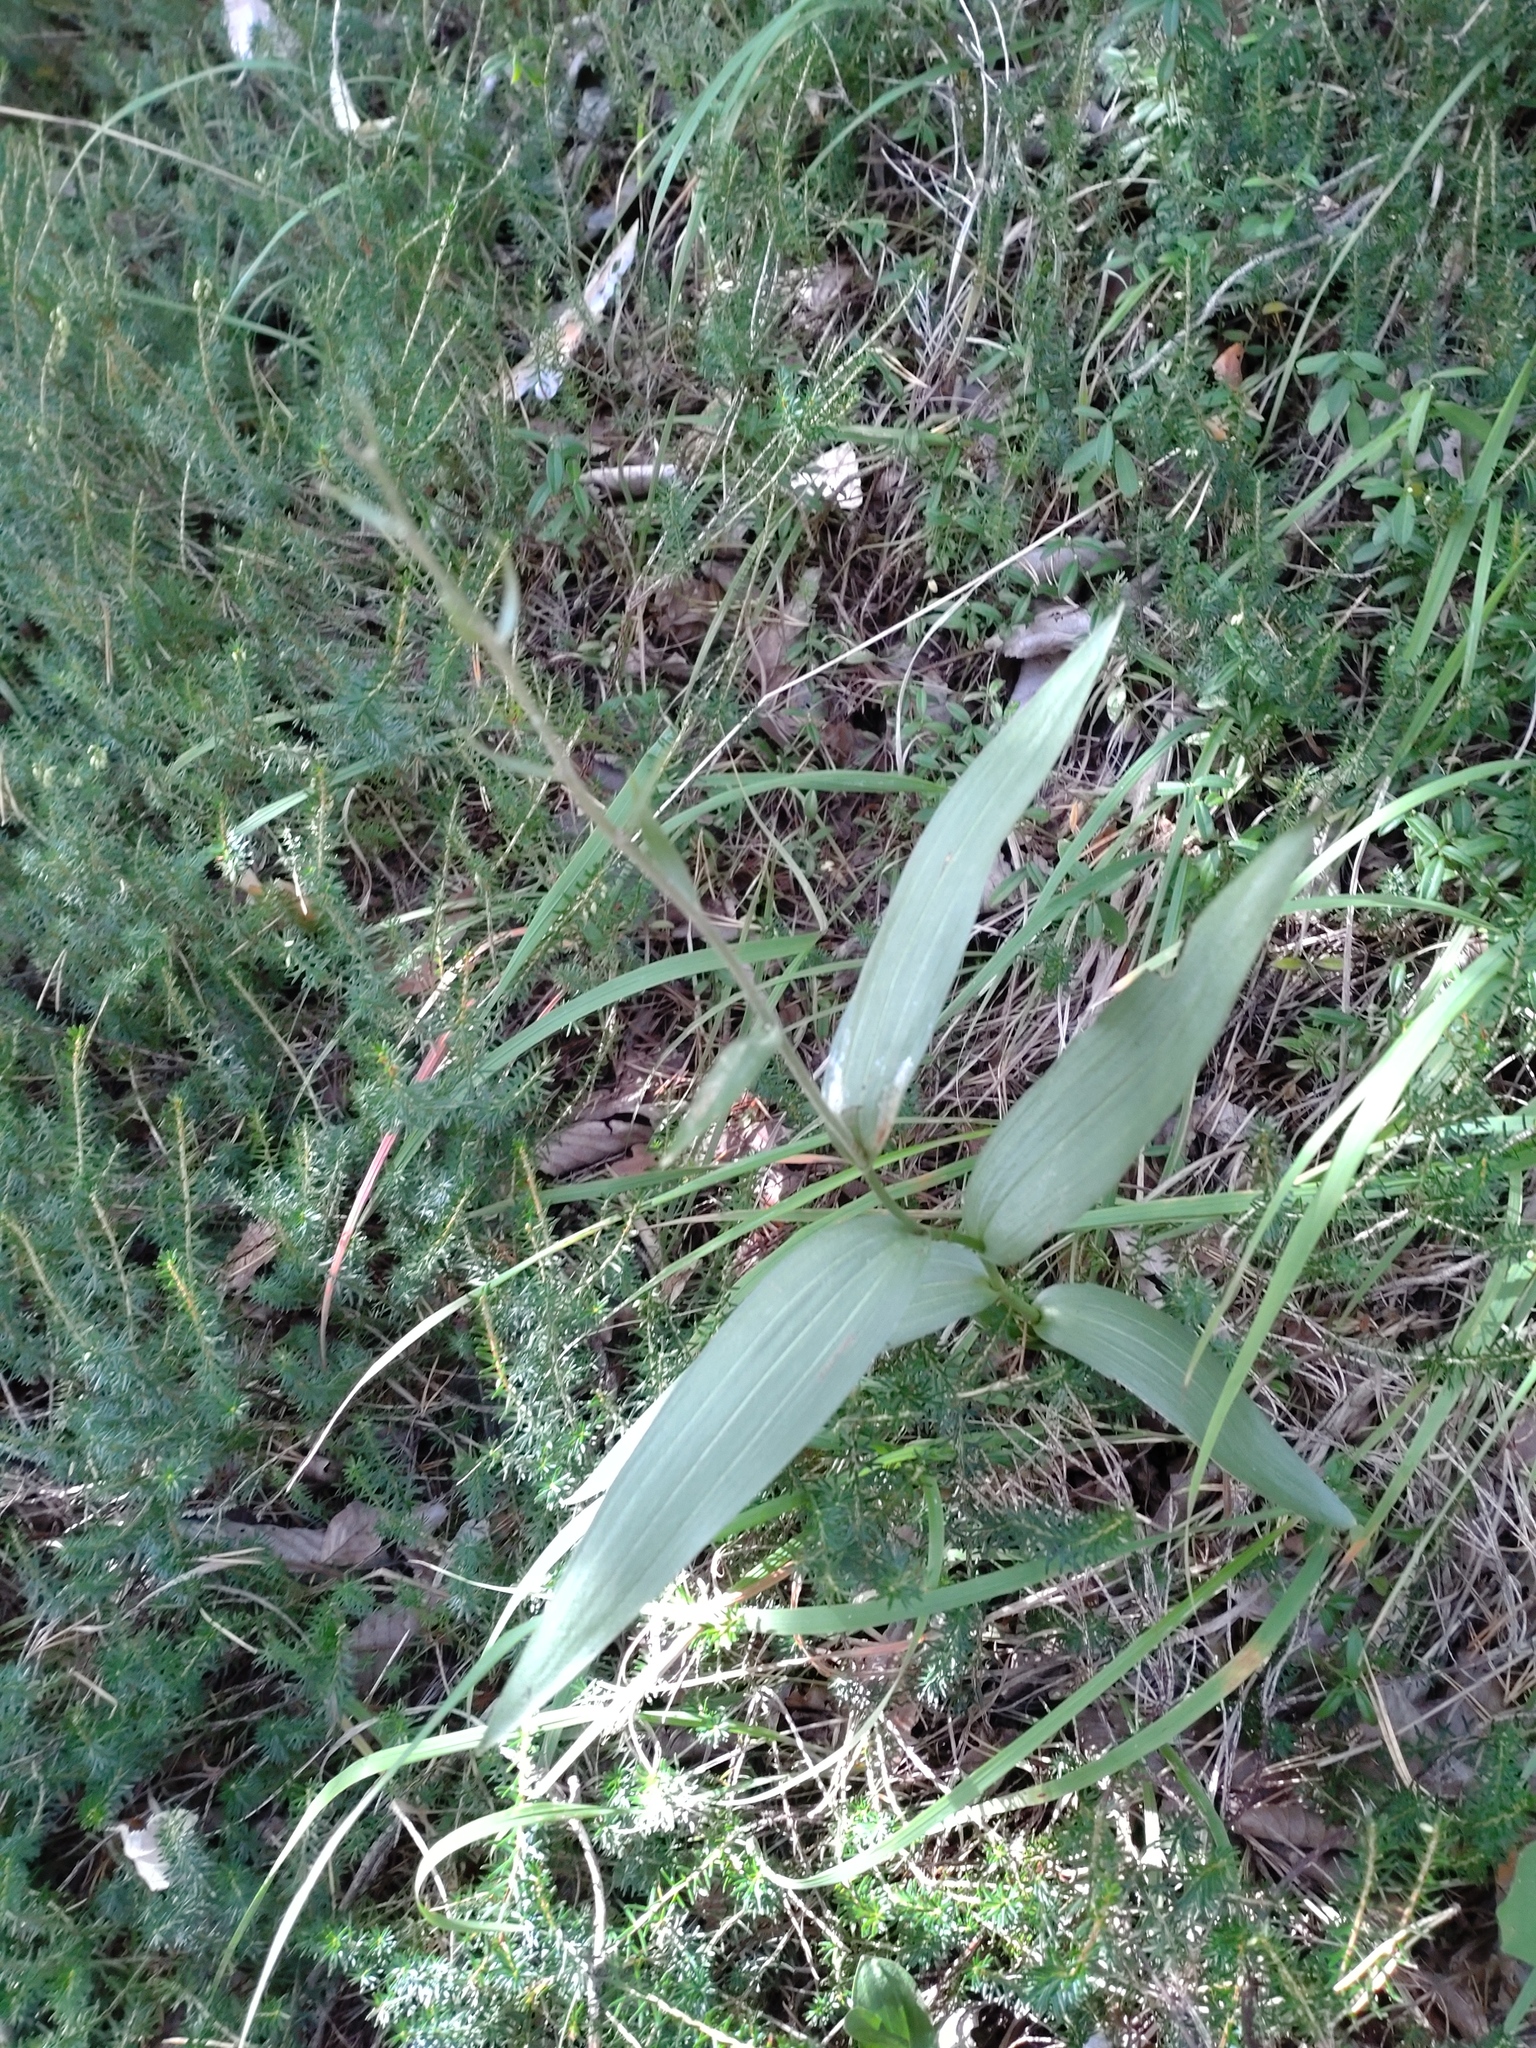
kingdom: Plantae
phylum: Tracheophyta
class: Liliopsida
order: Asparagales
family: Orchidaceae
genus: Cephalanthera
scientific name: Cephalanthera rubra
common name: Red helleborine
